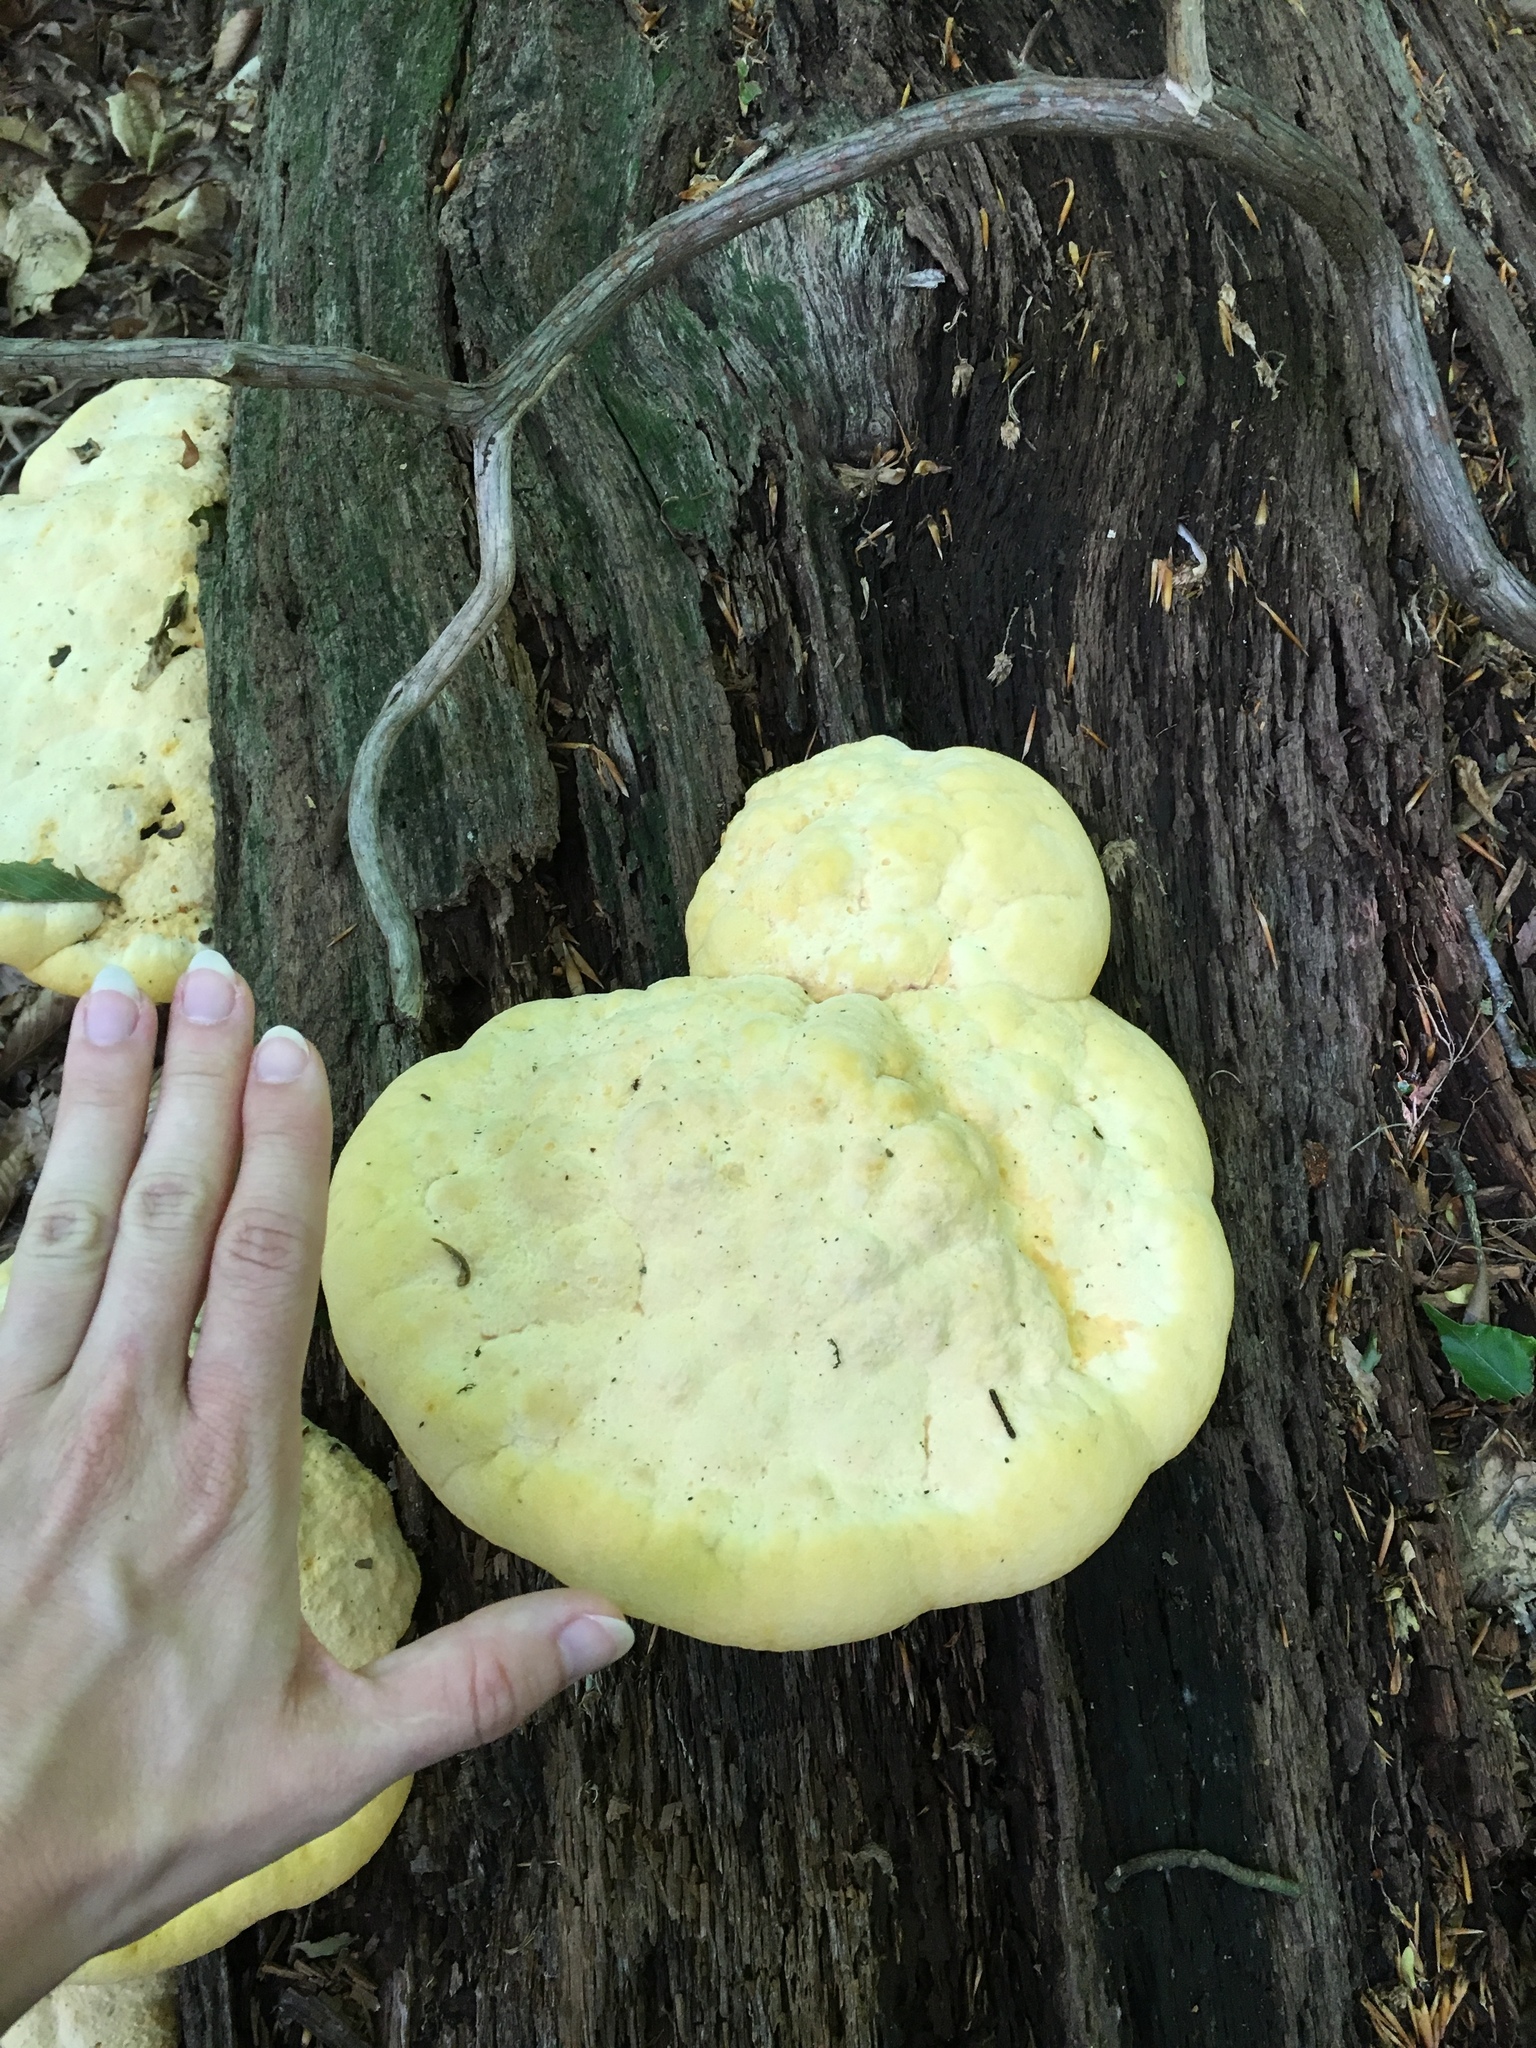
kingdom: Fungi
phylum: Basidiomycota
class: Agaricomycetes
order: Polyporales
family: Phanerochaetaceae
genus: Hapalopilus
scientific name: Hapalopilus croceus
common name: Orange polypore
